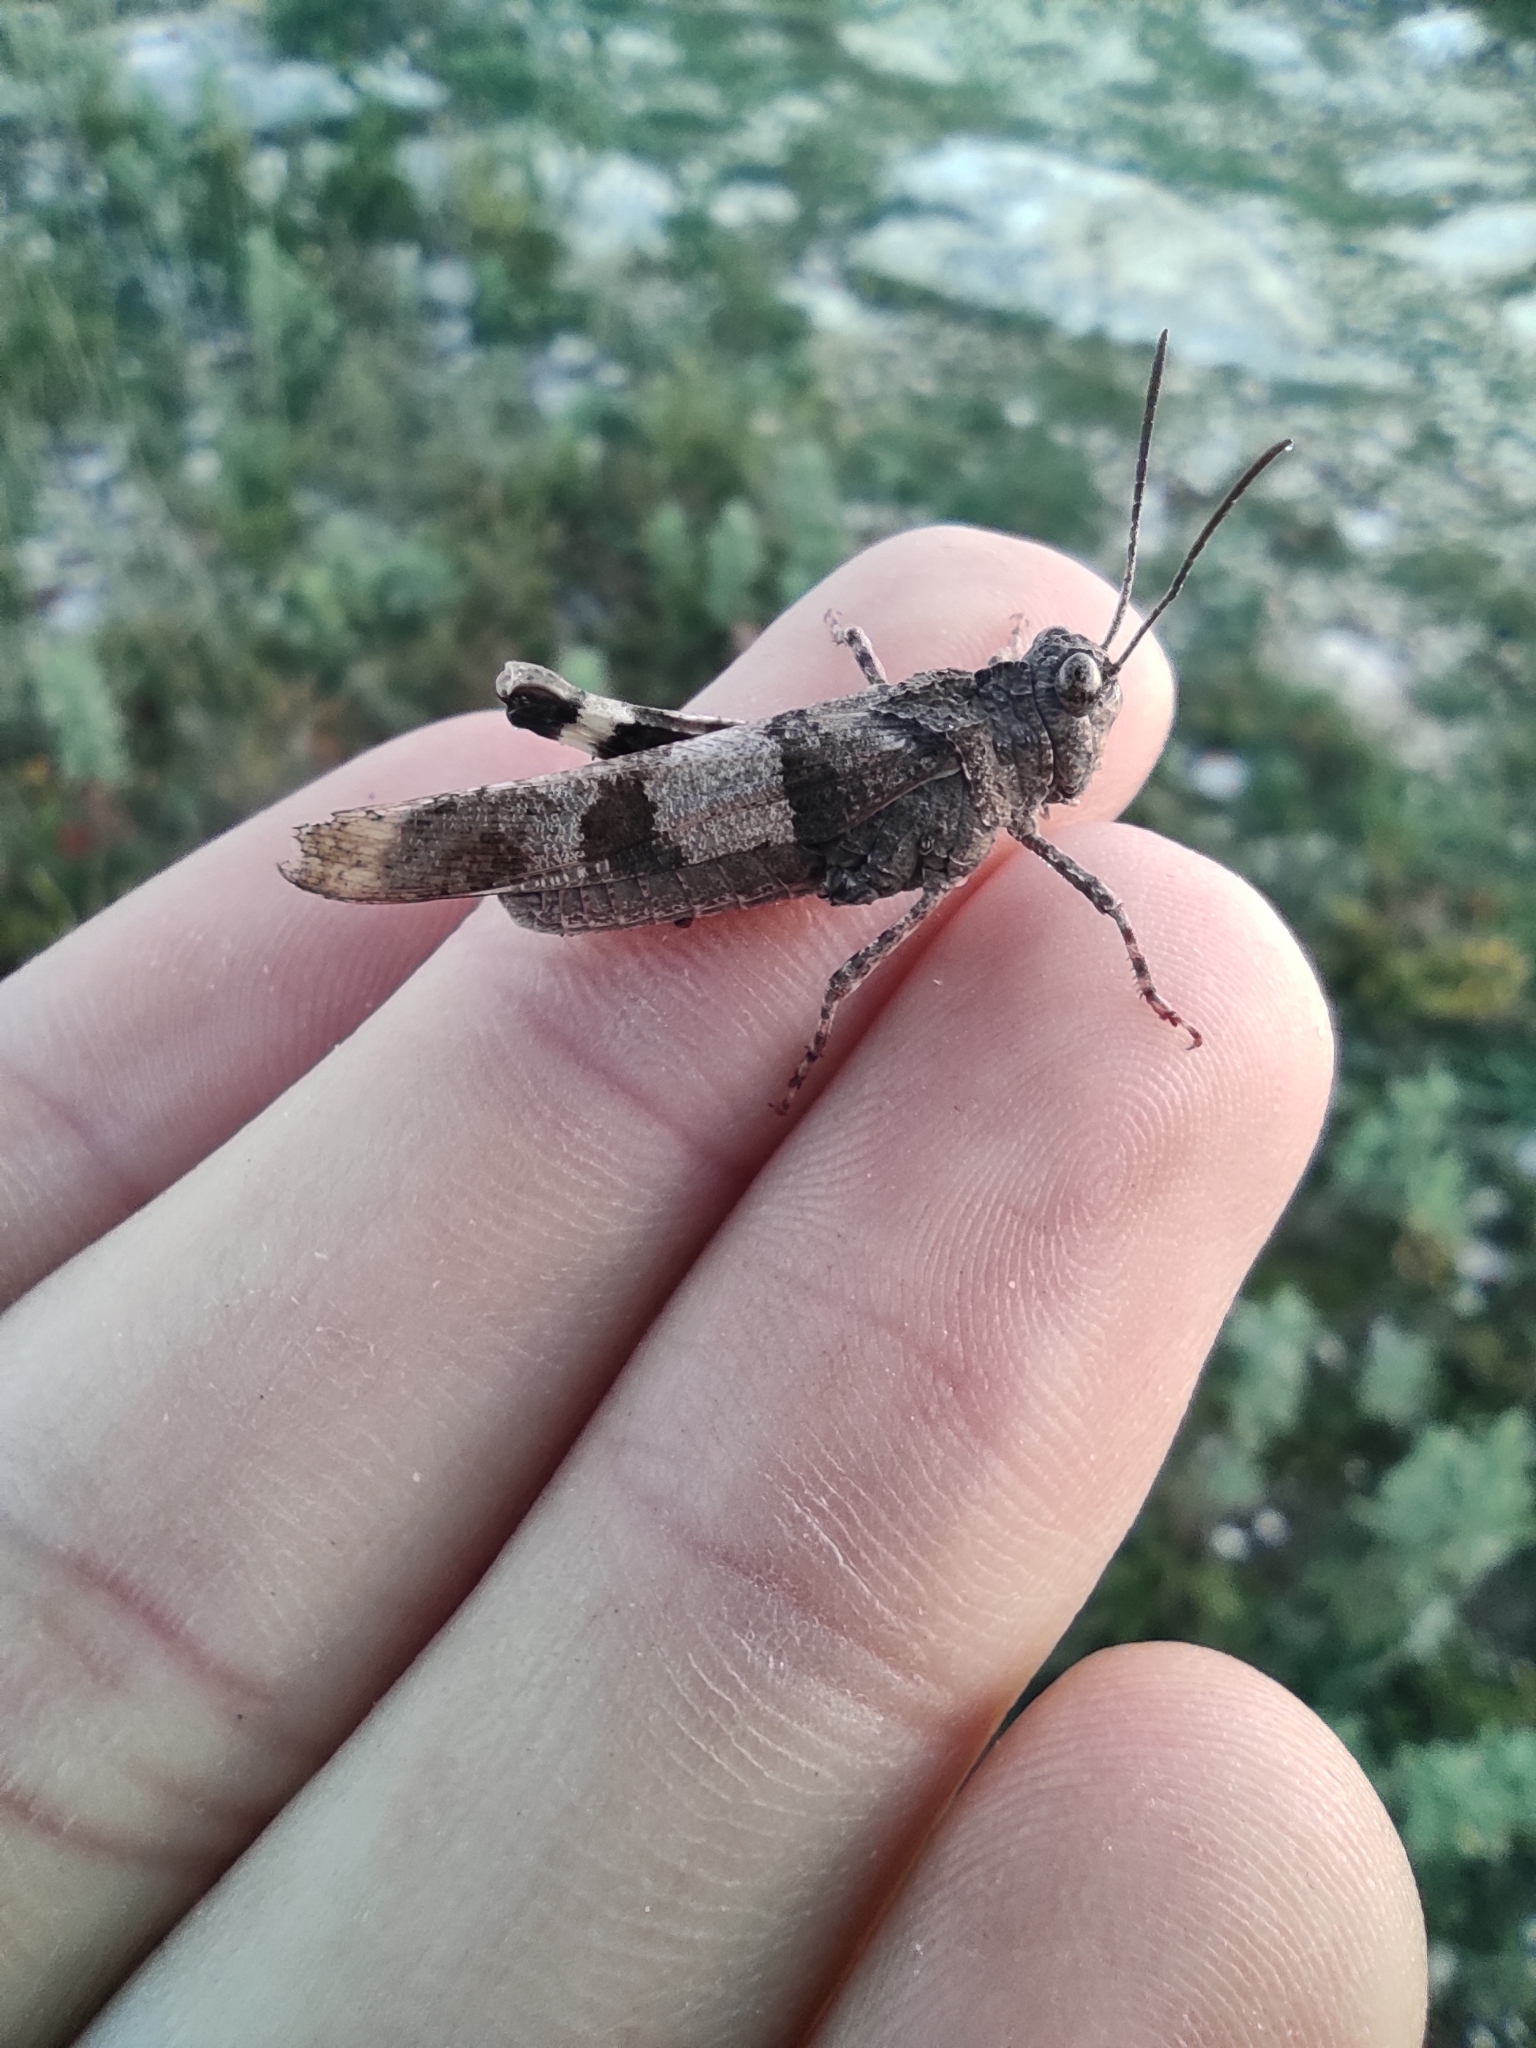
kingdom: Animalia
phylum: Arthropoda
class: Insecta
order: Orthoptera
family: Acrididae
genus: Oedipoda
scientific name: Oedipoda caerulescens
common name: Blue-winged grasshopper
